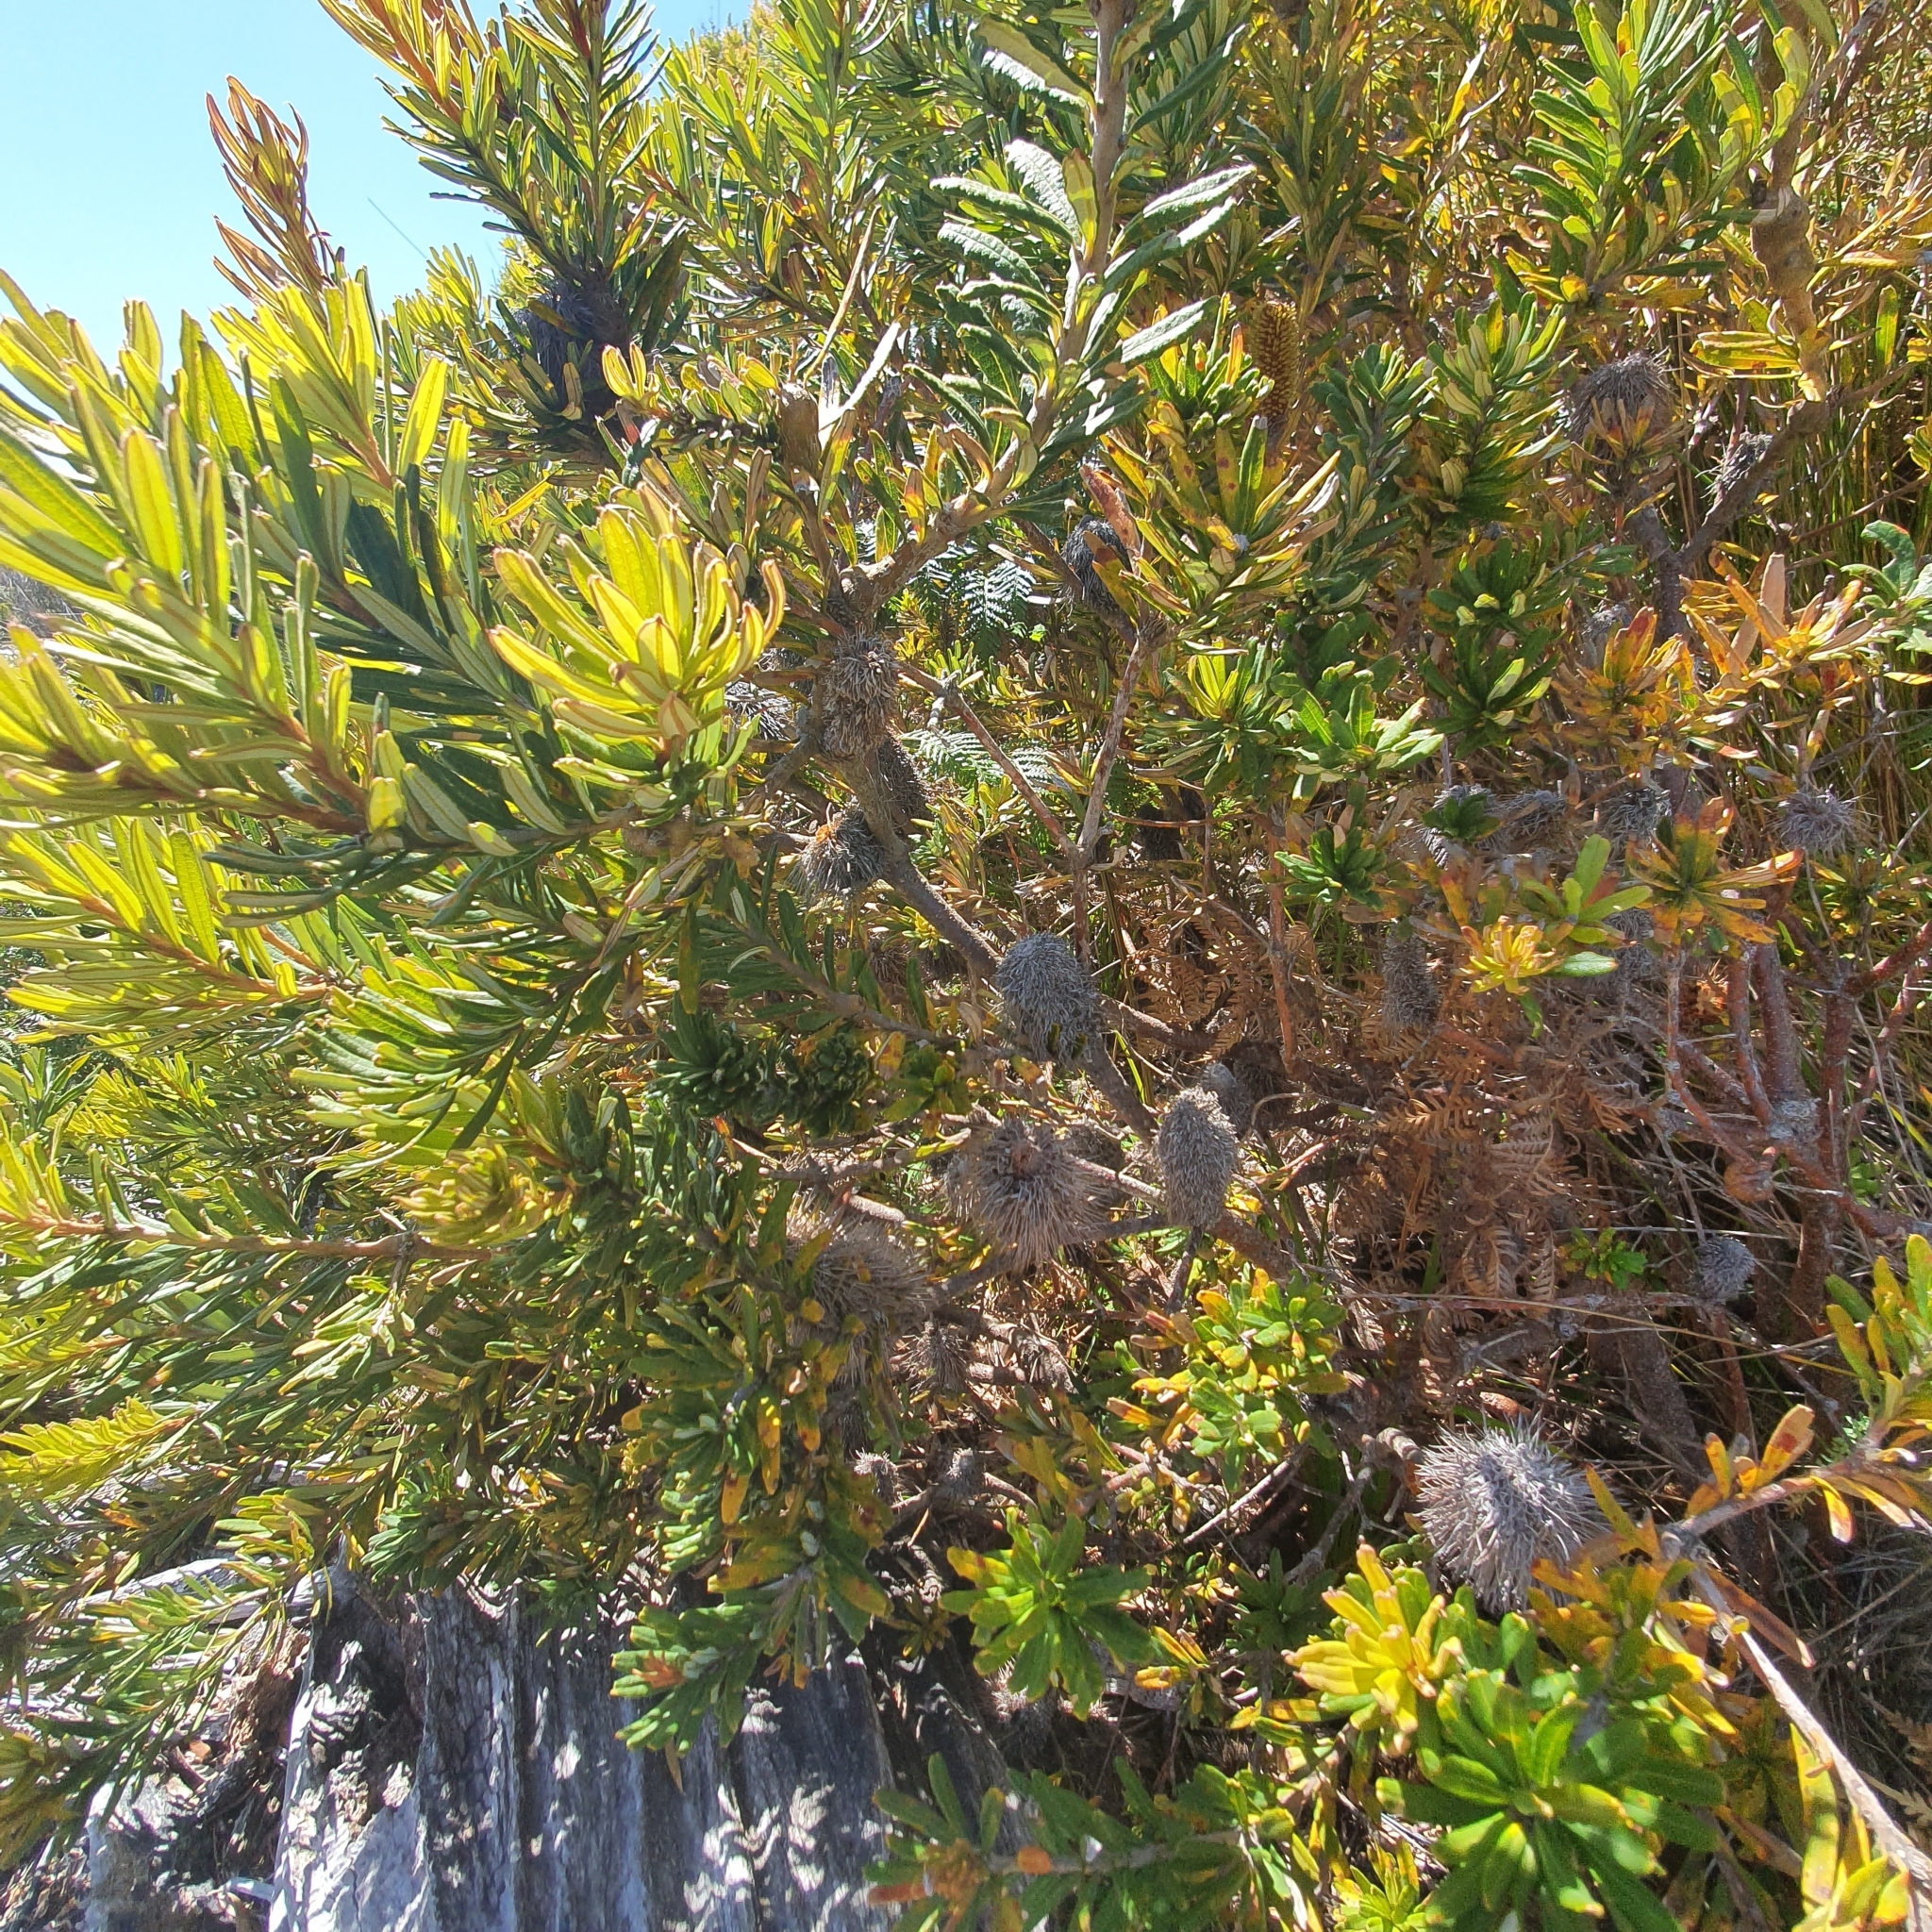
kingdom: Plantae
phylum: Tracheophyta
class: Magnoliopsida
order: Proteales
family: Proteaceae
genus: Banksia
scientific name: Banksia marginata
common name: Silver banksia
